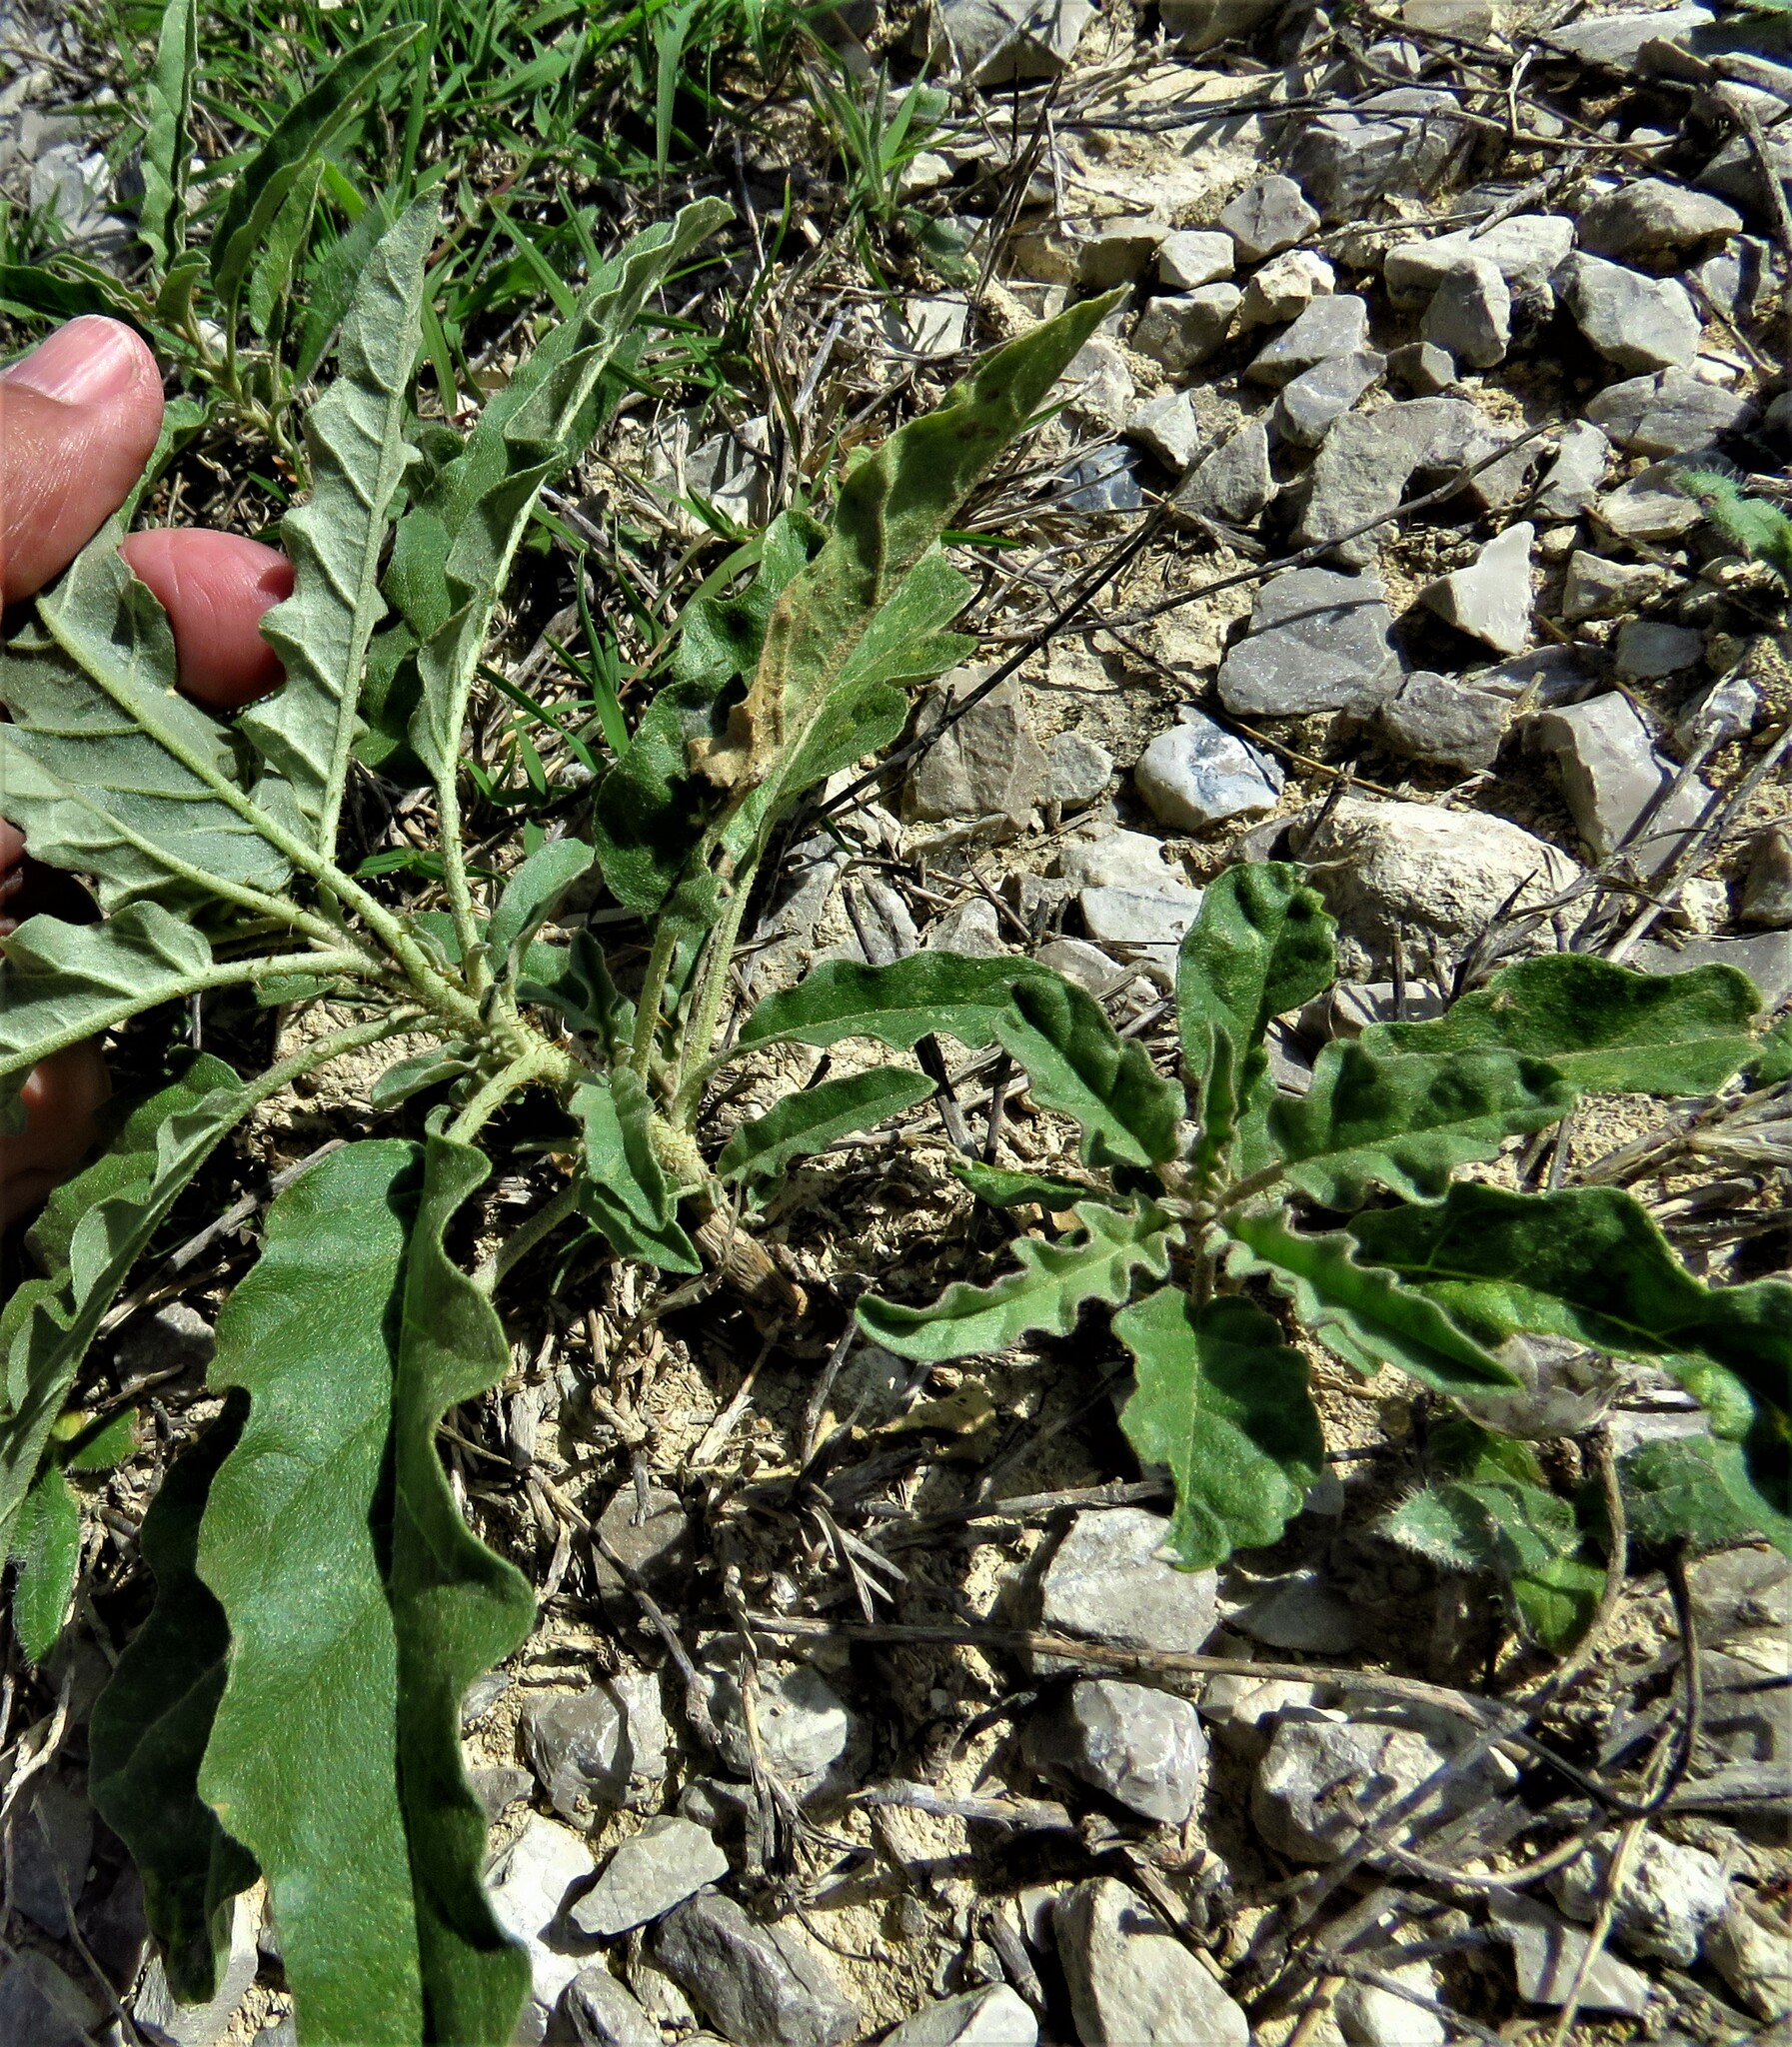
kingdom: Plantae
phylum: Tracheophyta
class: Magnoliopsida
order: Solanales
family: Solanaceae
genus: Solanum
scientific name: Solanum elaeagnifolium
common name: Silverleaf nightshade
